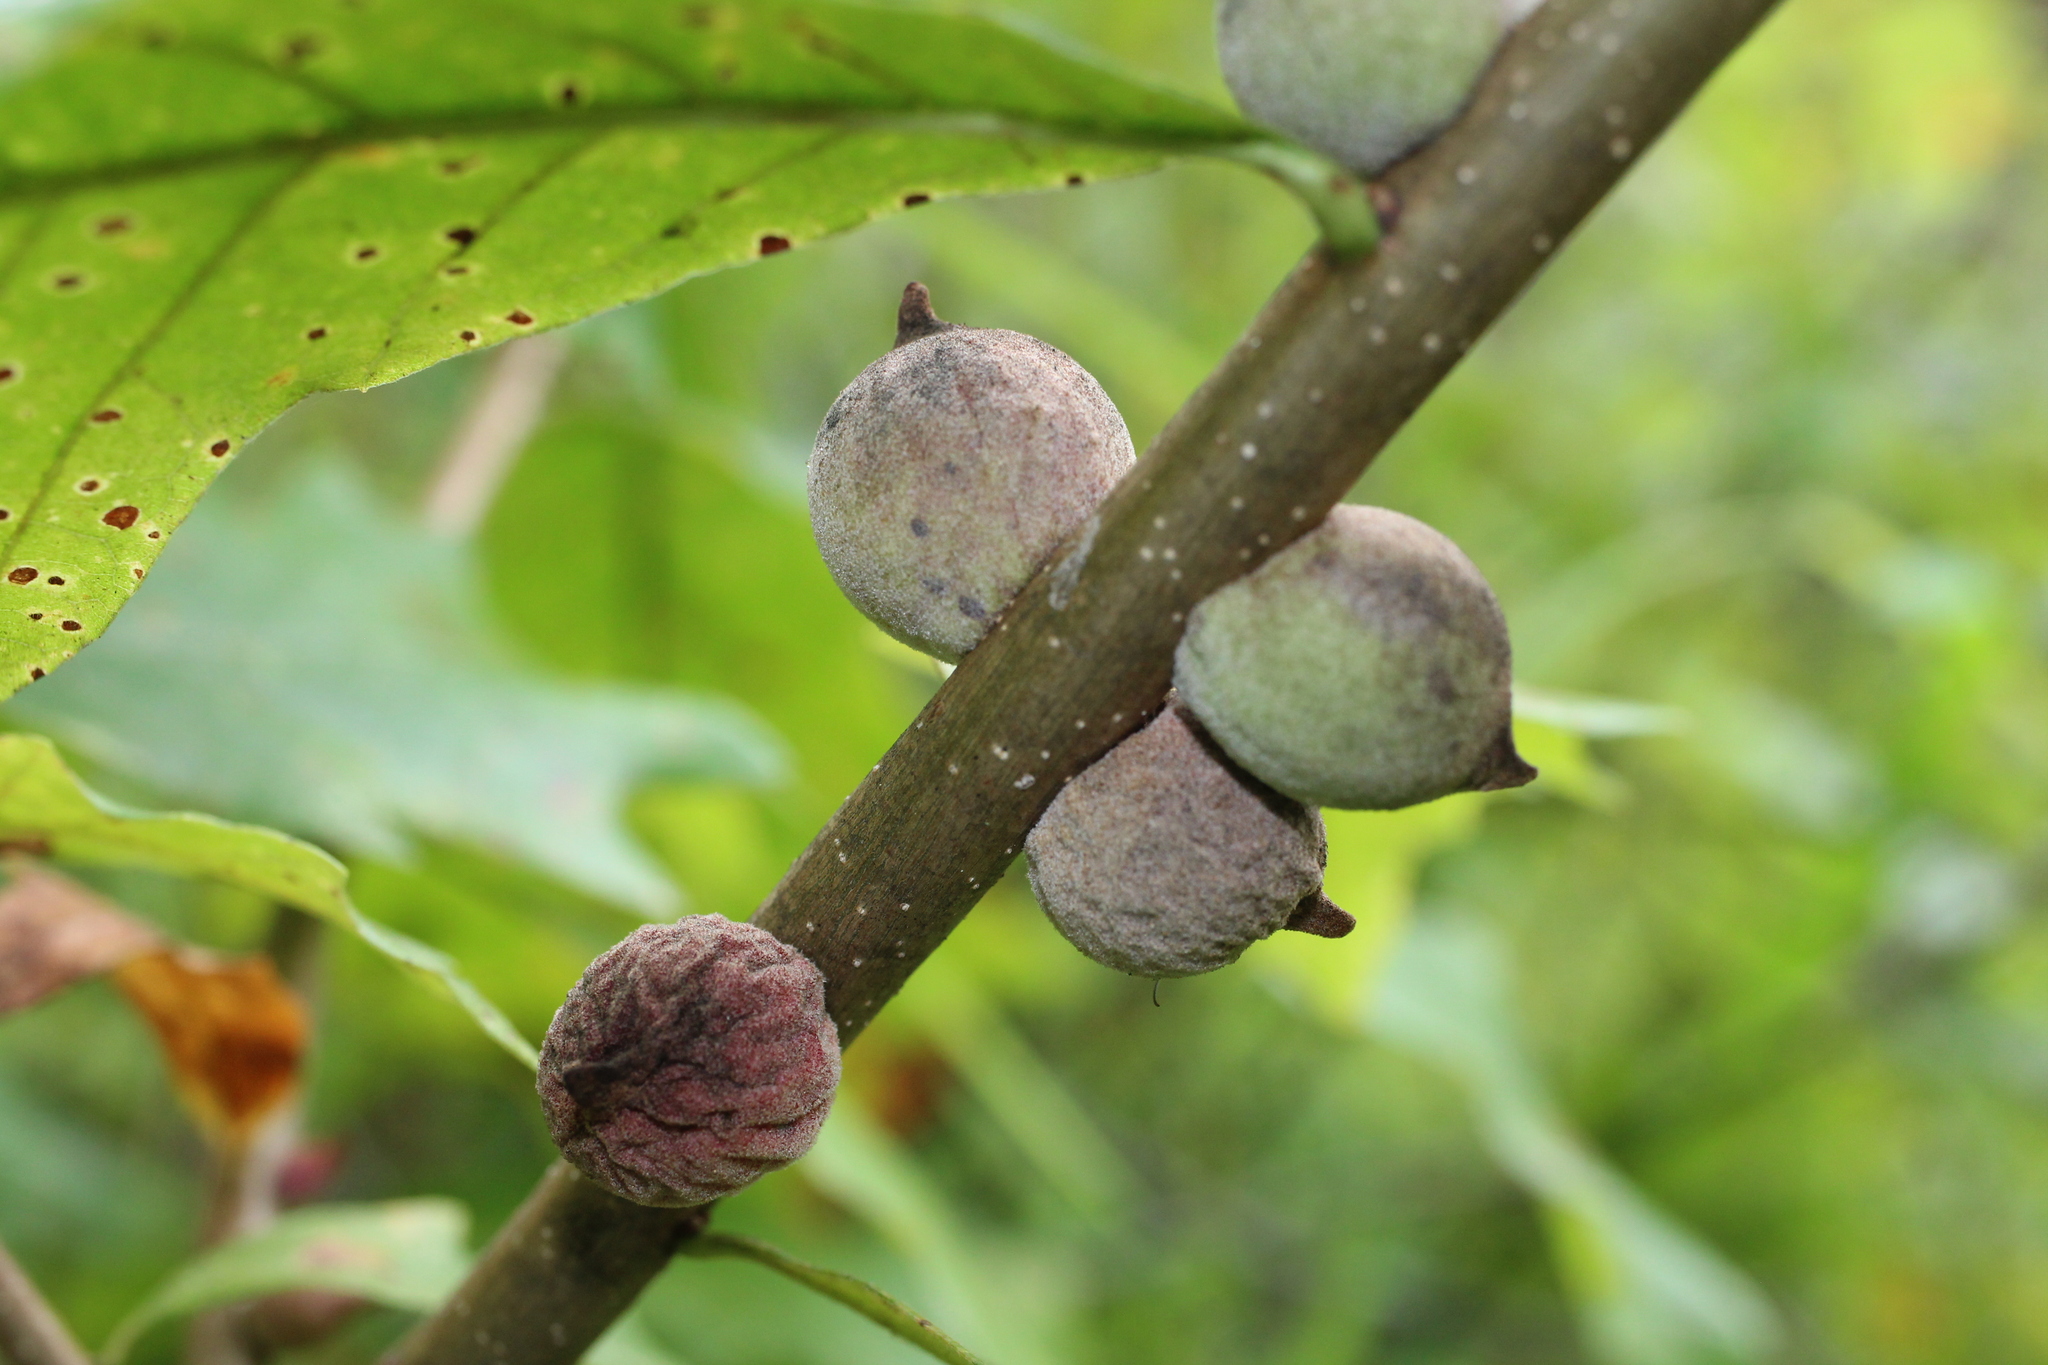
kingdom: Animalia
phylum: Arthropoda
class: Insecta
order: Hymenoptera
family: Cynipidae
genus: Disholcaspis
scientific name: Disholcaspis
